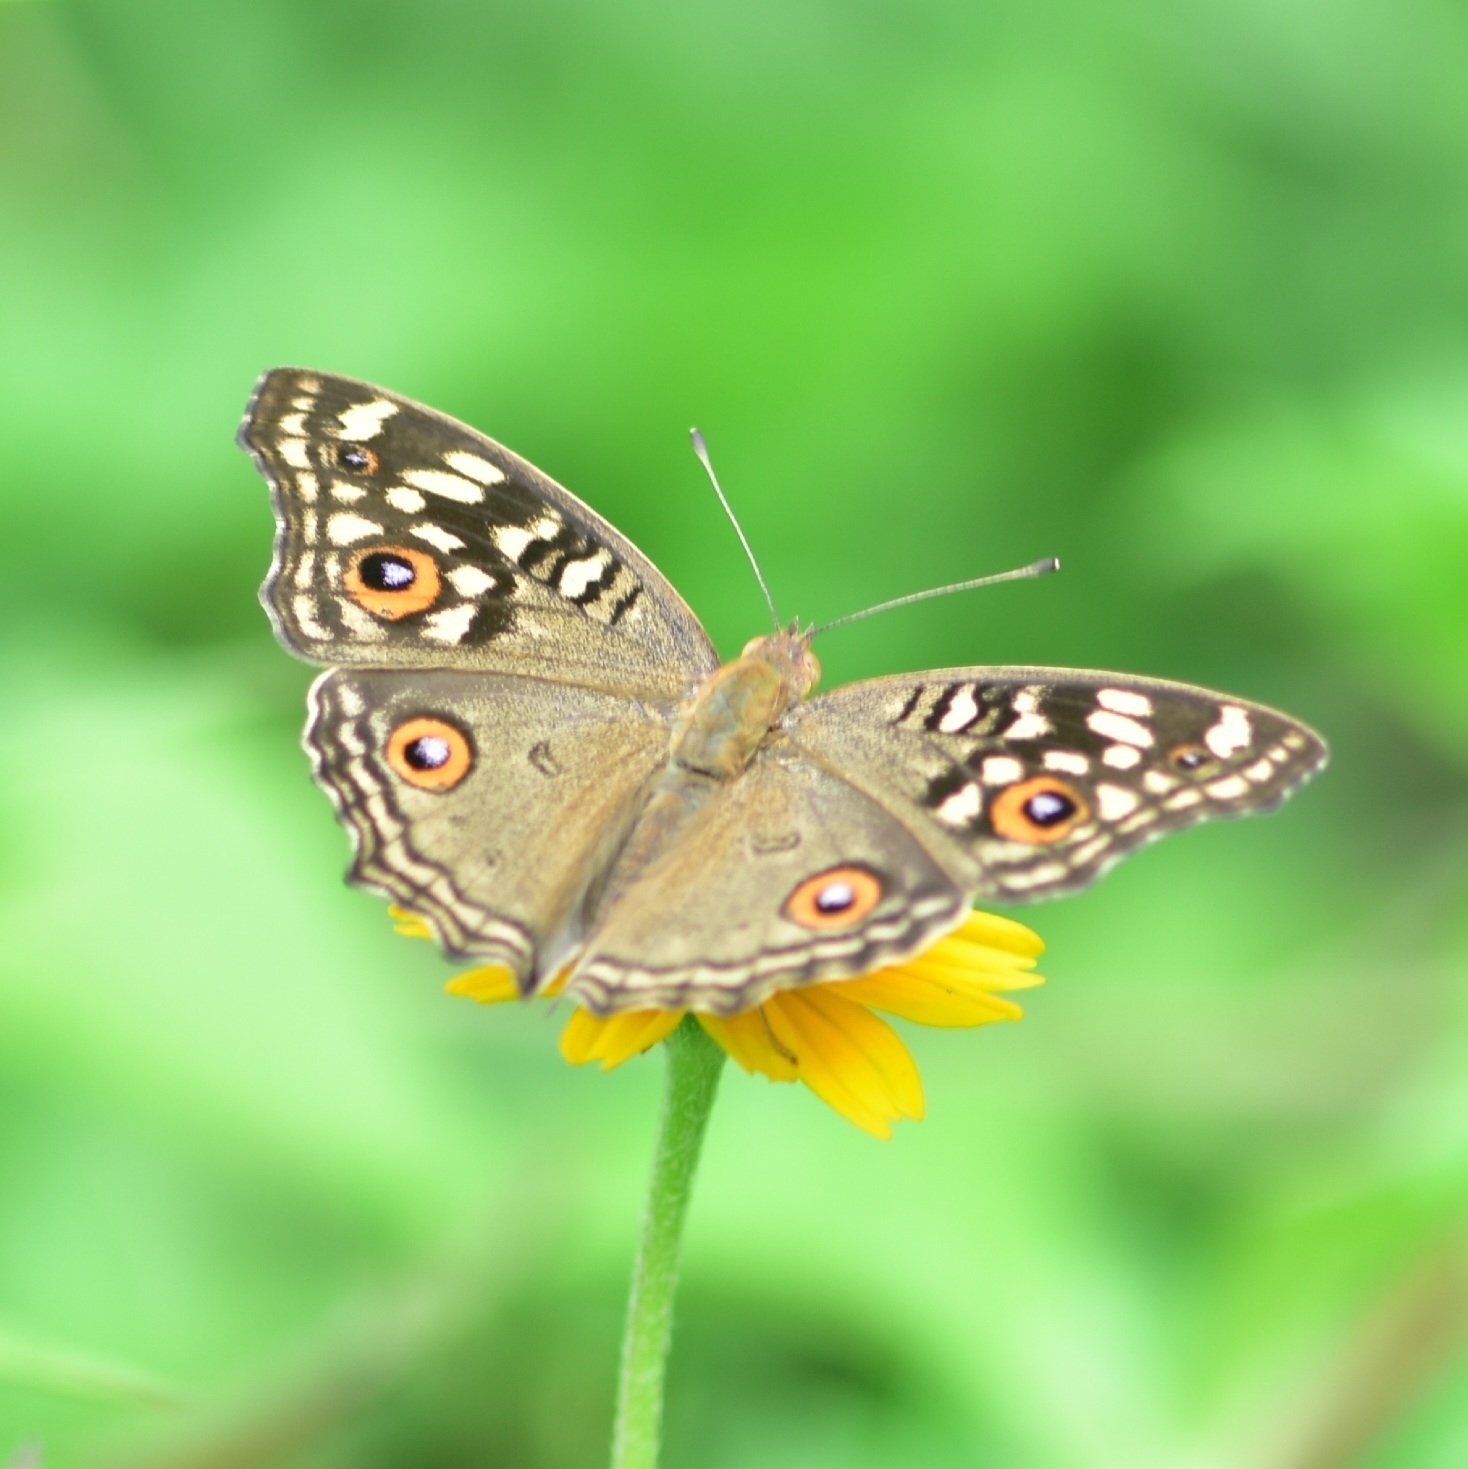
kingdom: Animalia
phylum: Arthropoda
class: Insecta
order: Lepidoptera
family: Nymphalidae
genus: Junonia
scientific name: Junonia lemonias
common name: Lemon pansy
